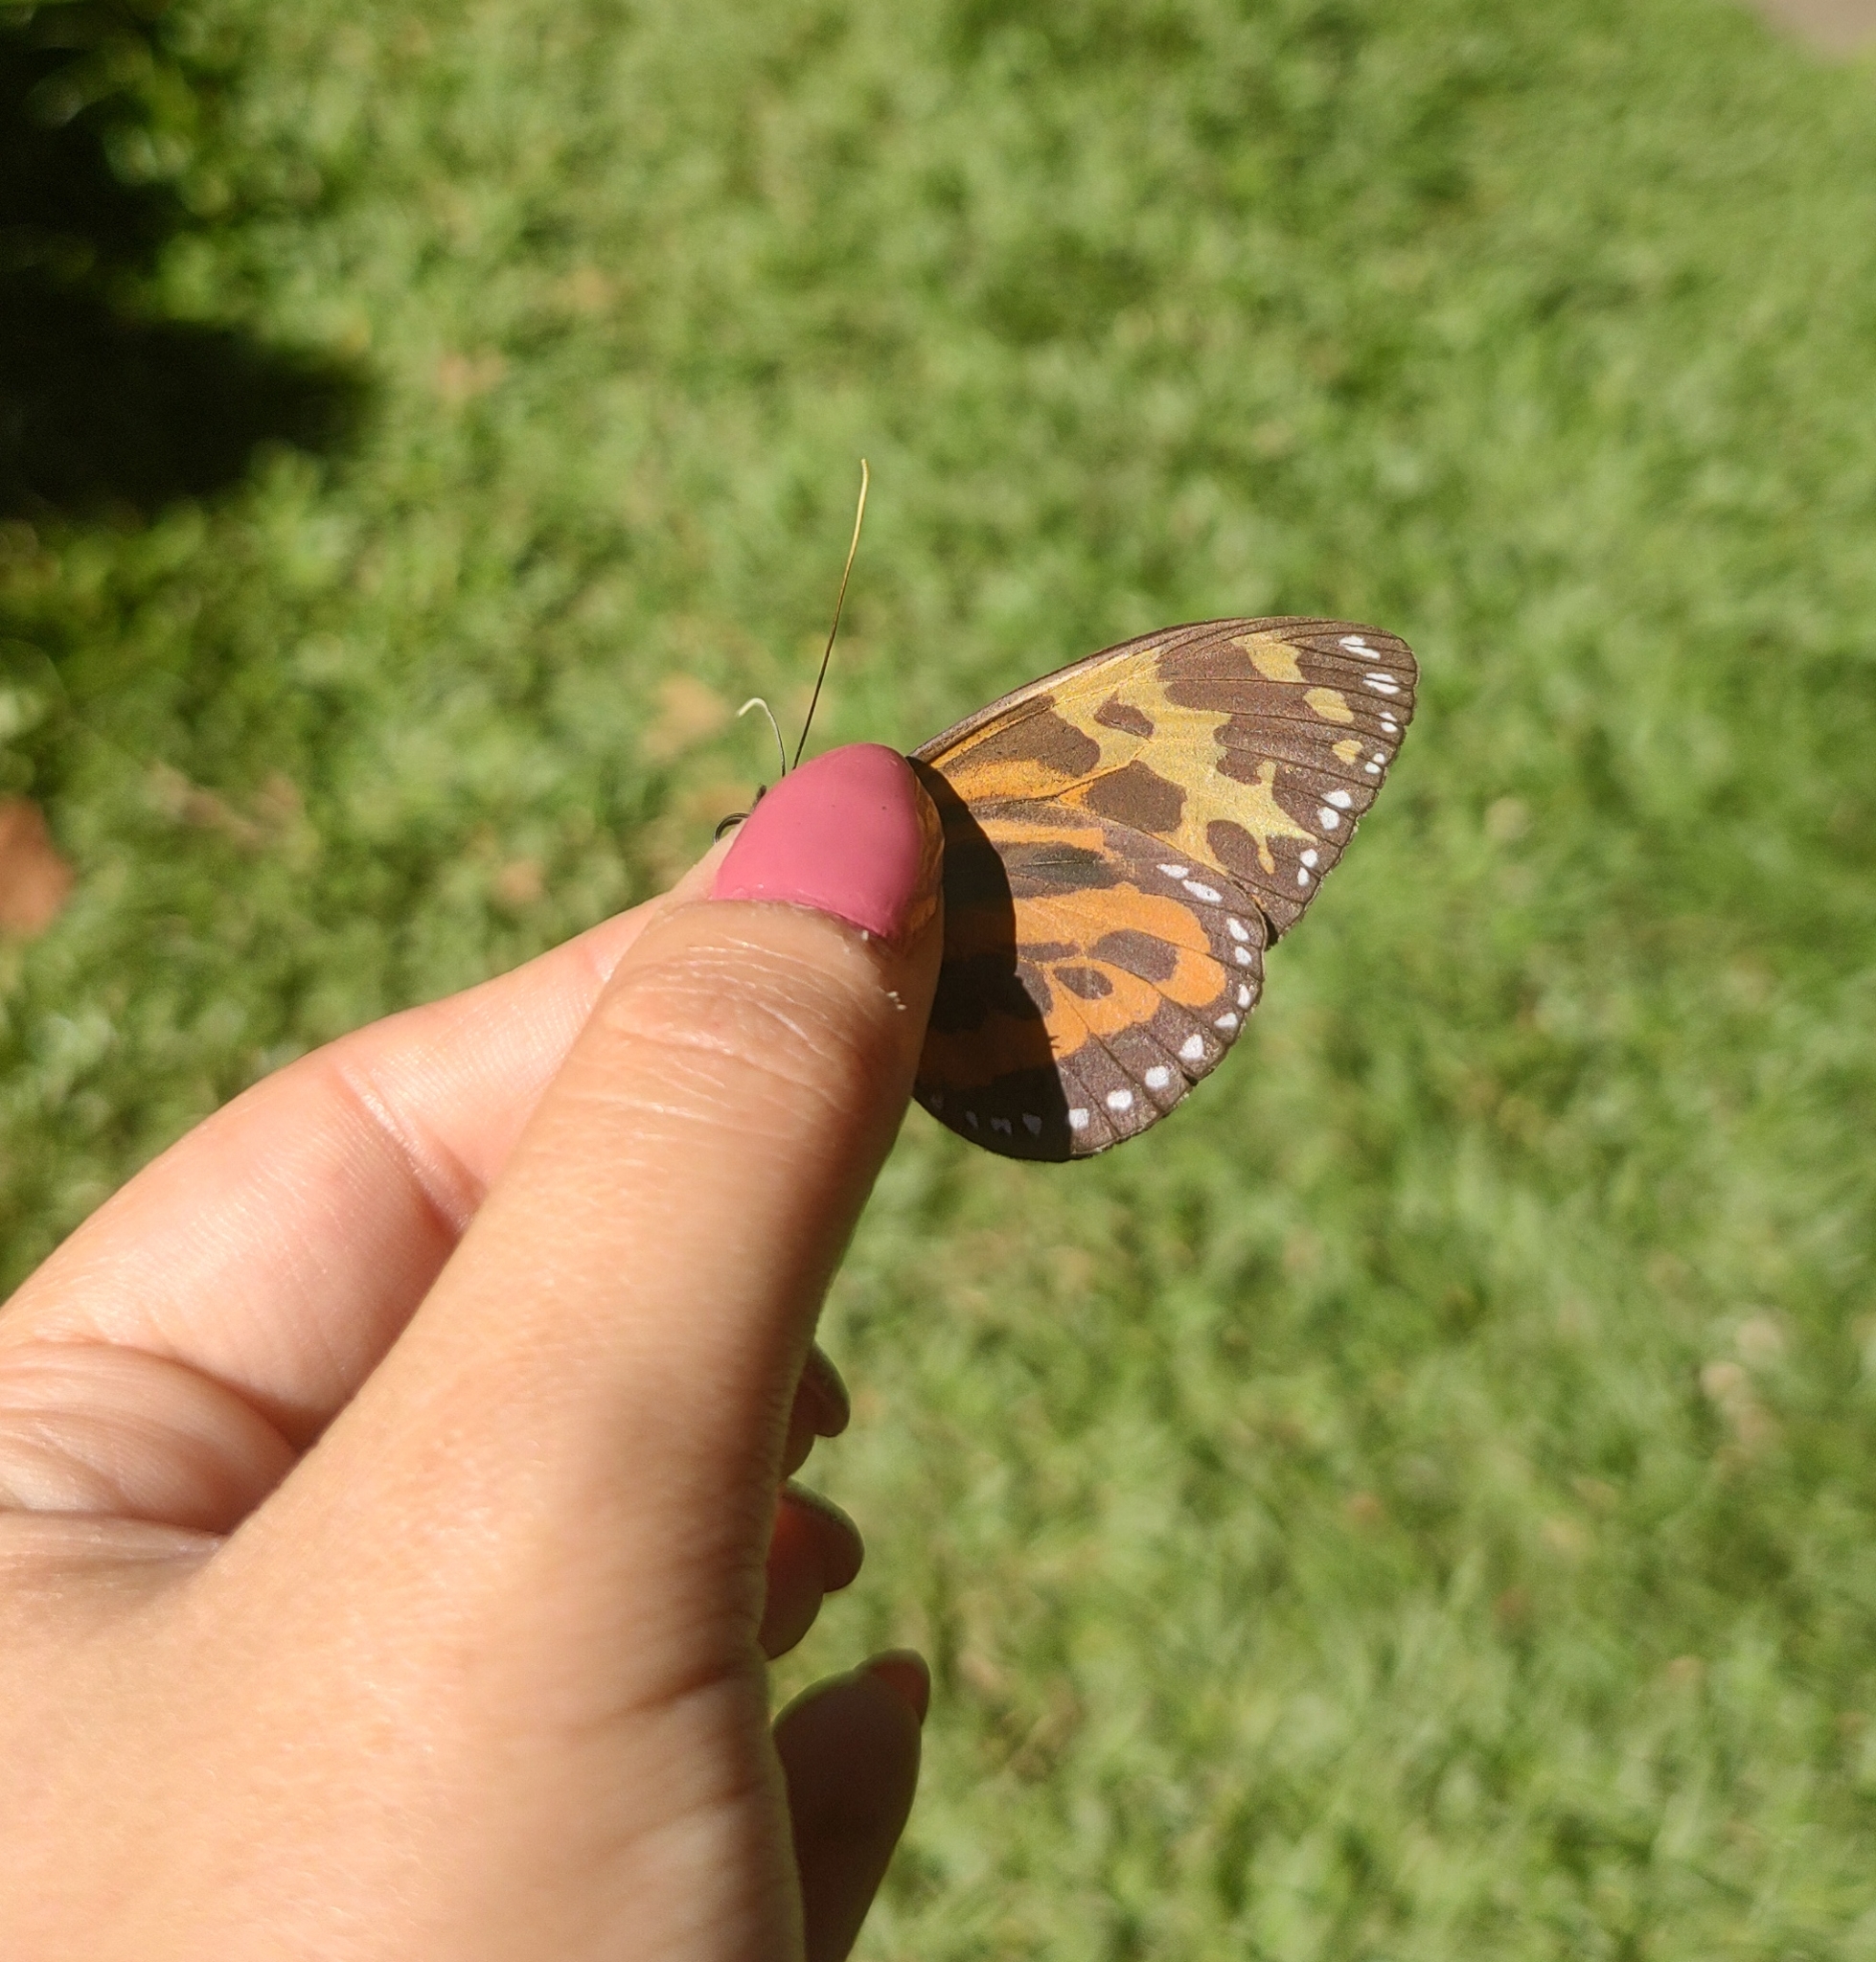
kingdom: Animalia
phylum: Arthropoda
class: Insecta
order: Lepidoptera
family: Nymphalidae
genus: Tithorea
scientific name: Tithorea harmonia
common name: Harmonia tigerwing
